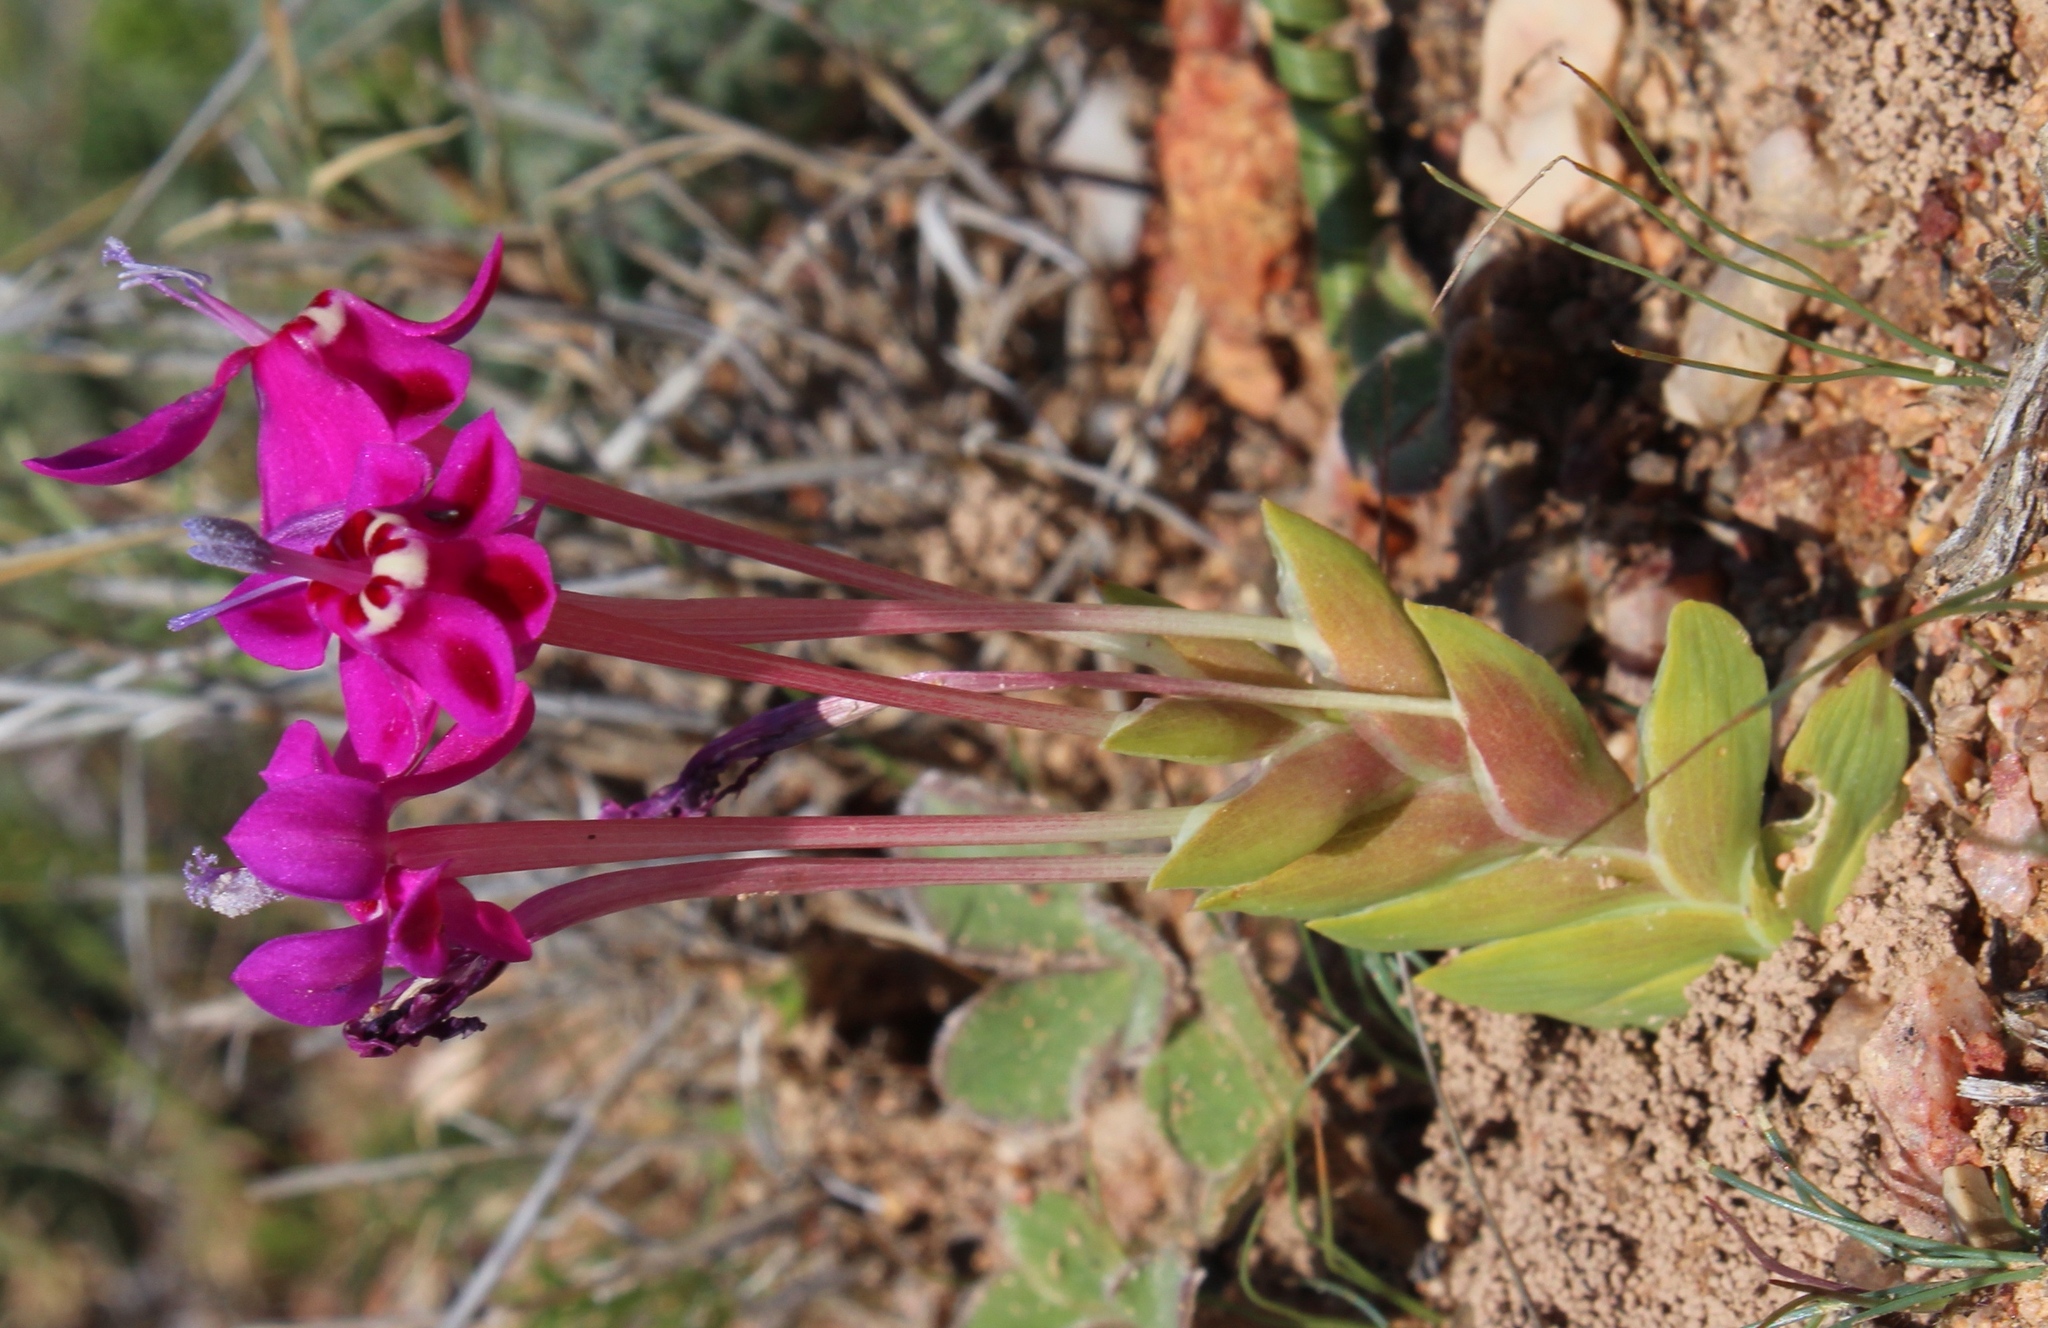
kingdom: Plantae
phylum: Tracheophyta
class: Liliopsida
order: Asparagales
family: Iridaceae
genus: Lapeirousia
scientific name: Lapeirousia silenoides
